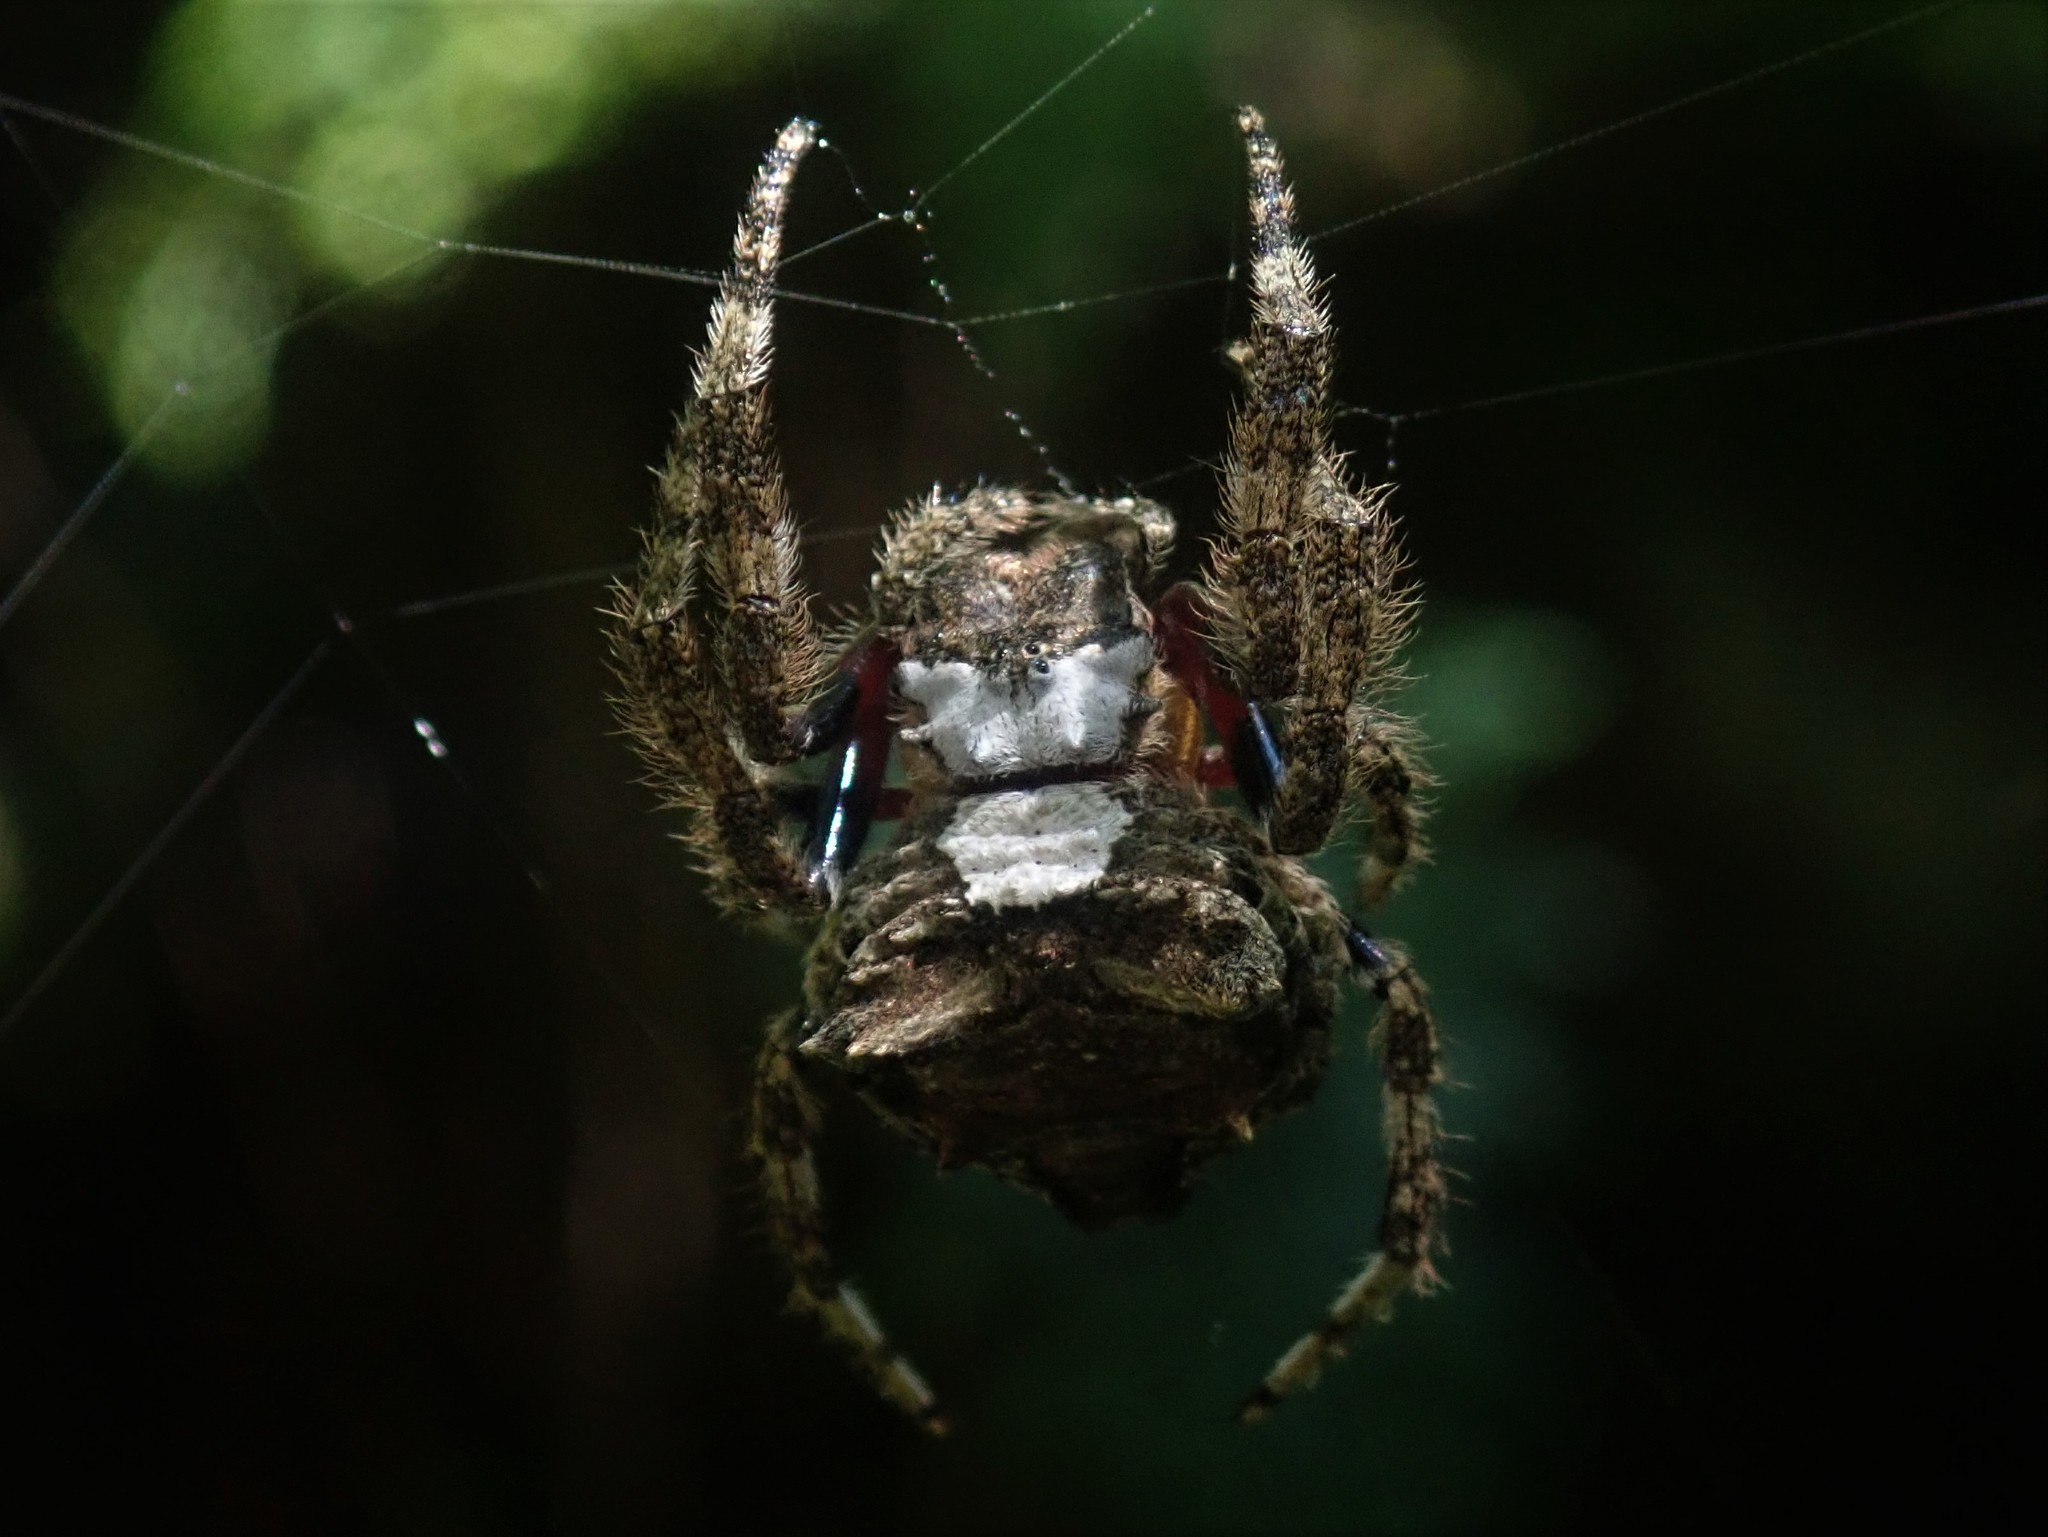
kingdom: Animalia
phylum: Arthropoda
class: Arachnida
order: Araneae
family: Araneidae
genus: Caerostris
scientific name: Caerostris sexcuspidata
